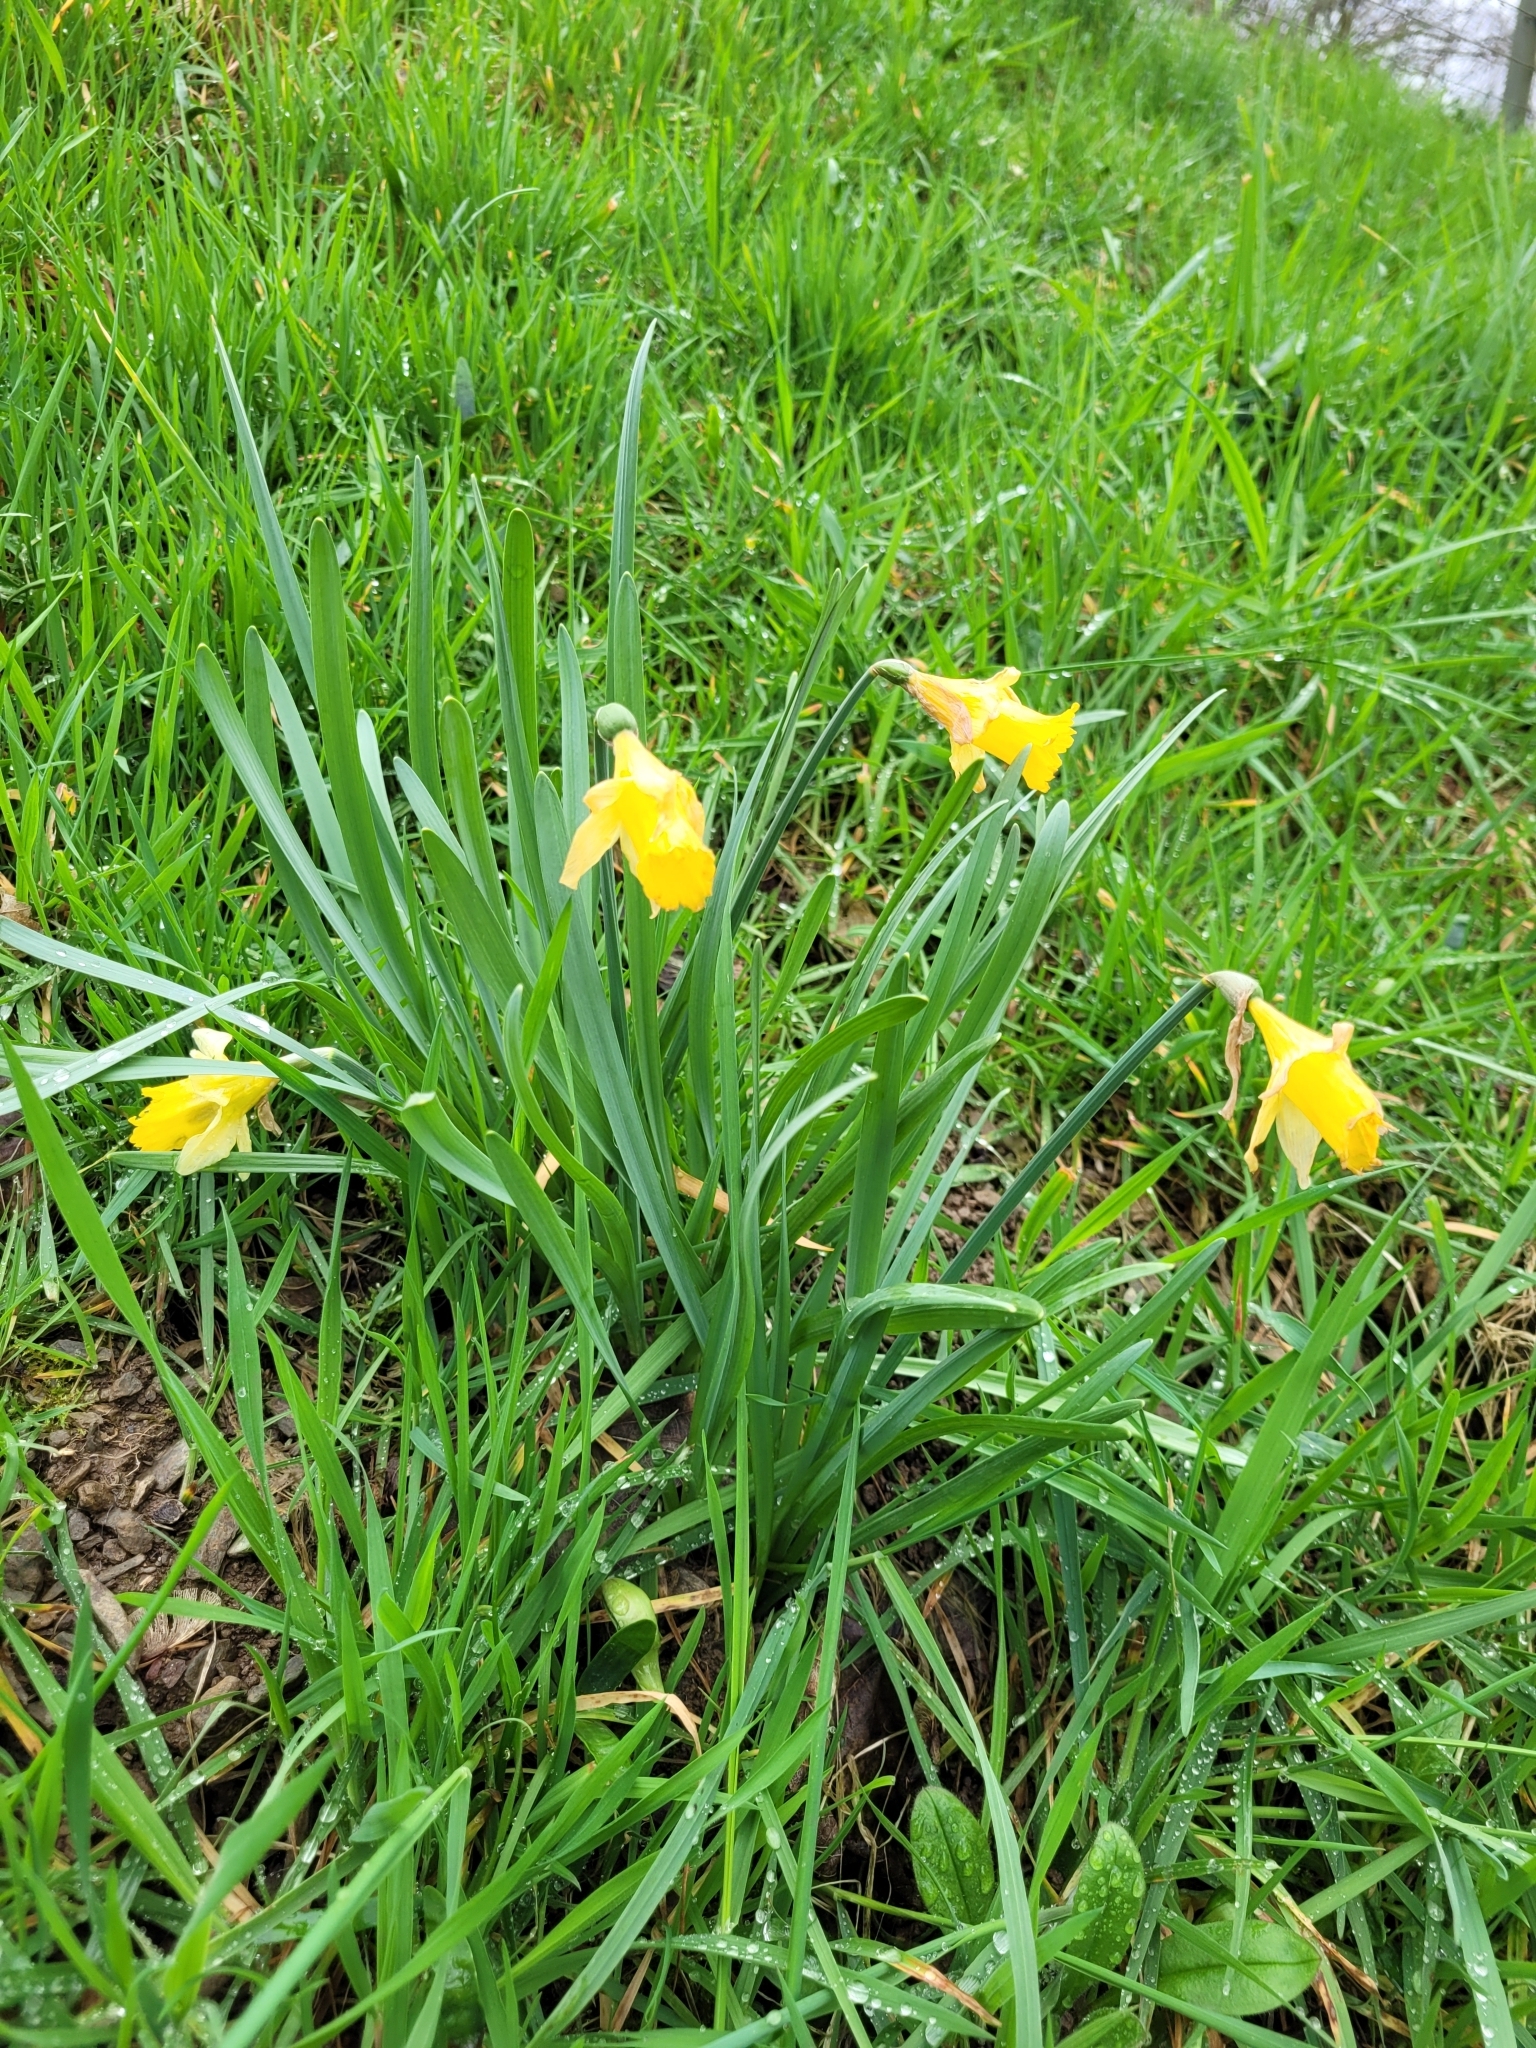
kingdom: Plantae
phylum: Tracheophyta
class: Liliopsida
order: Asparagales
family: Amaryllidaceae
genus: Narcissus
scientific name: Narcissus pseudonarcissus
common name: Daffodil
